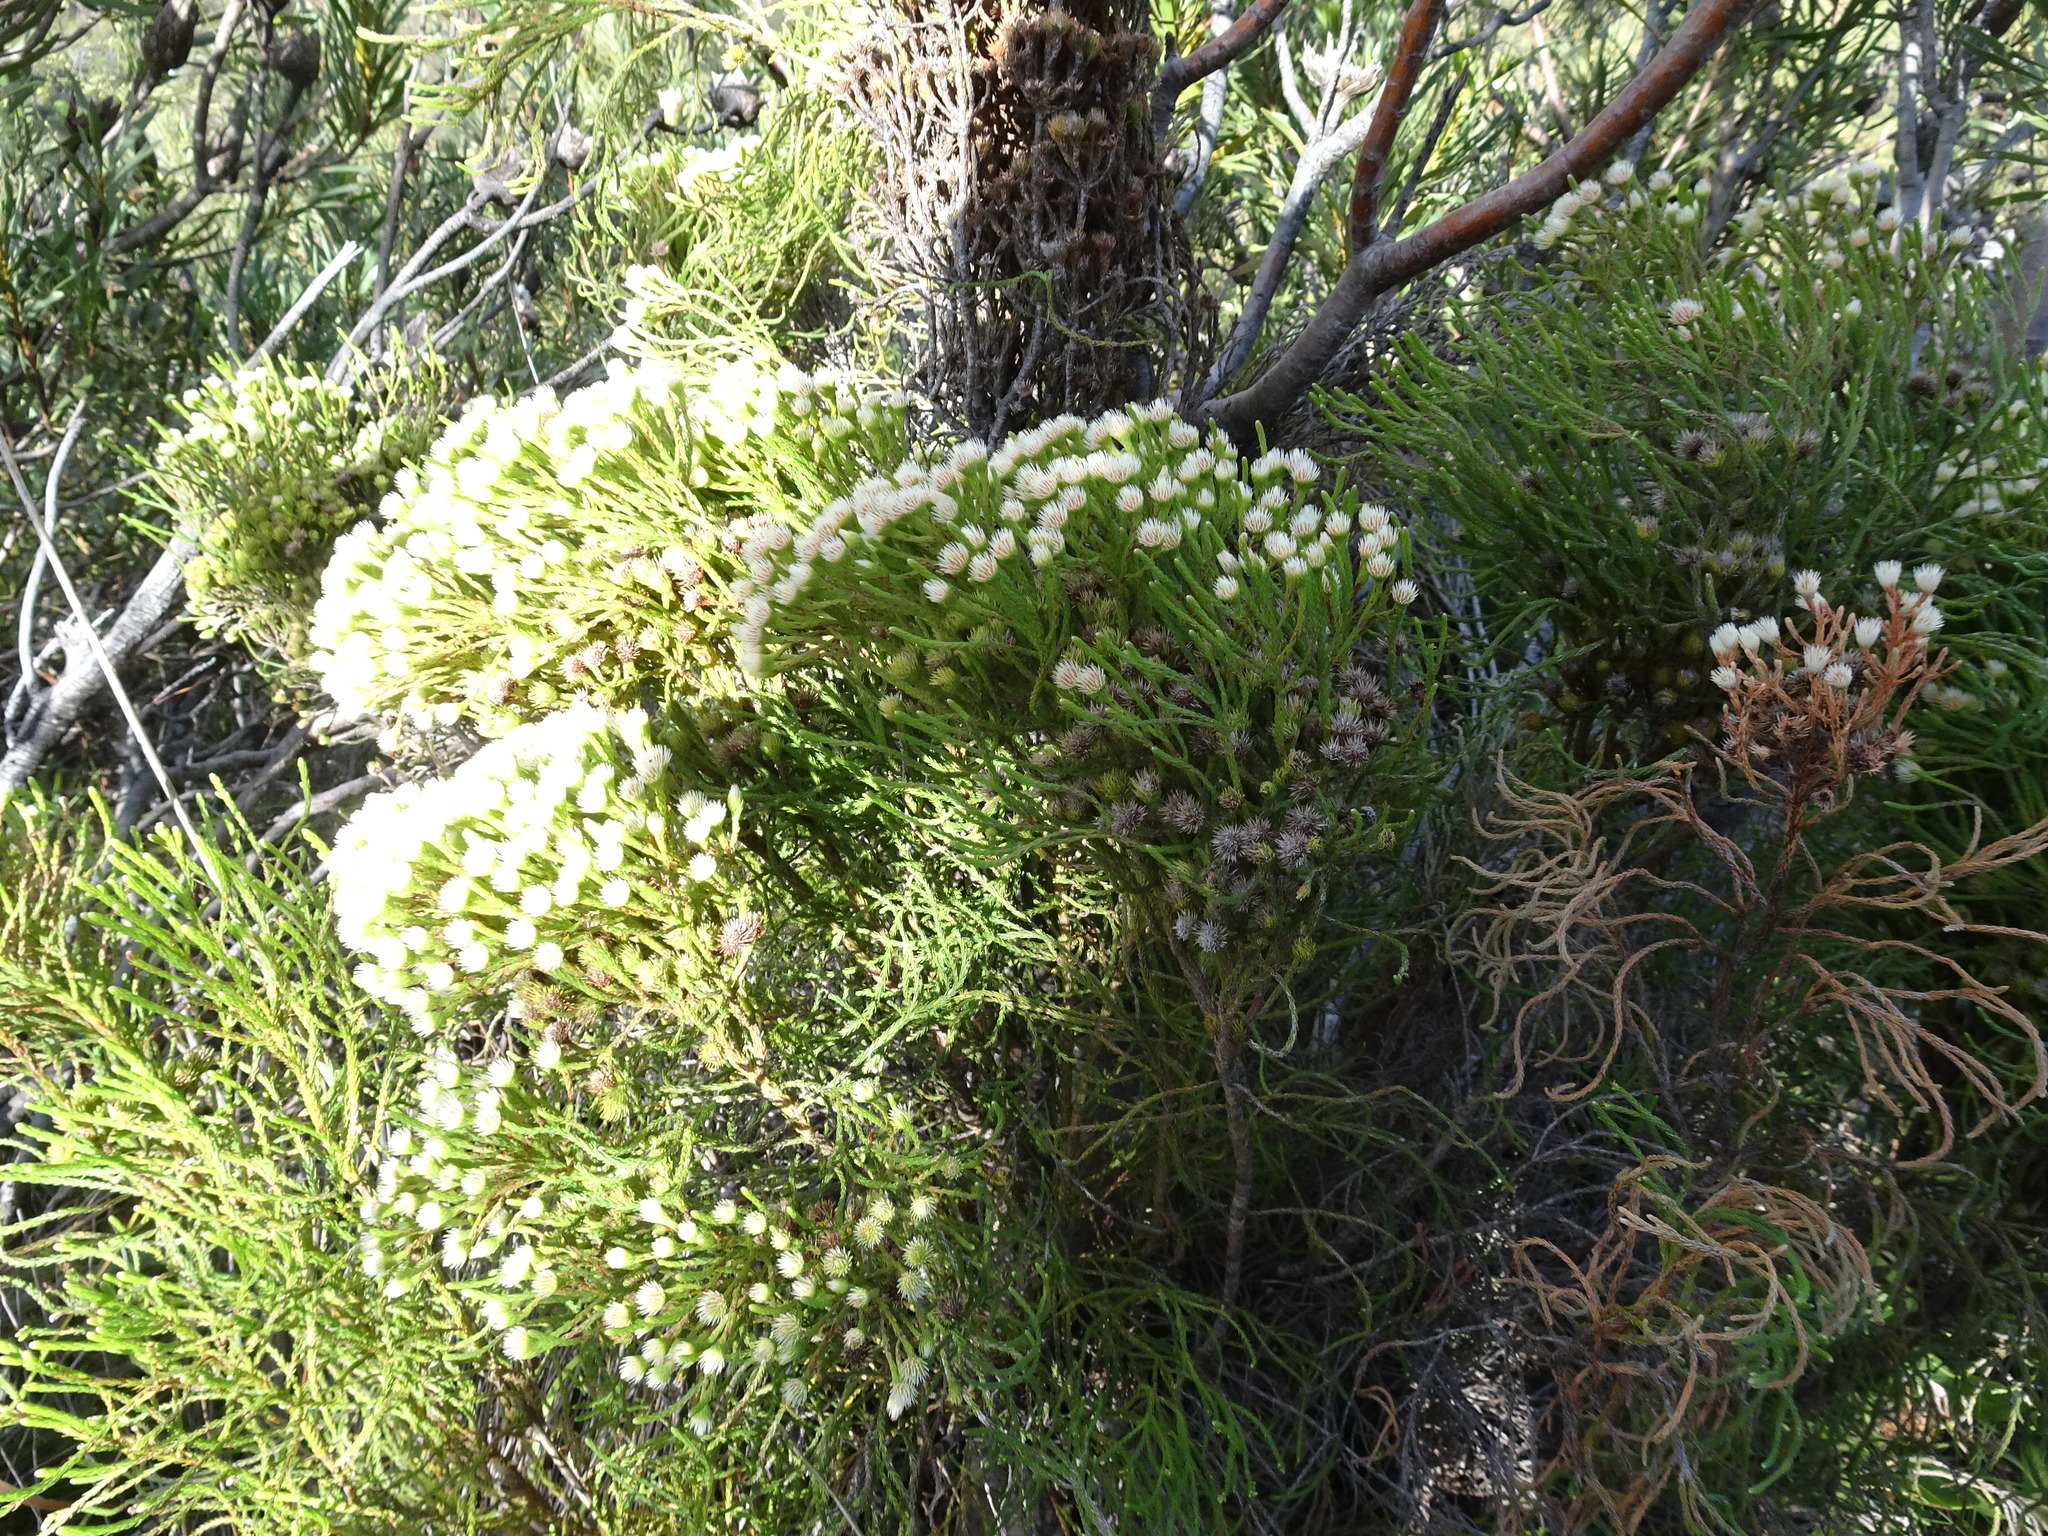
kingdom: Plantae
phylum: Tracheophyta
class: Magnoliopsida
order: Bruniales
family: Bruniaceae
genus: Brunia
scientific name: Brunia paleacea
